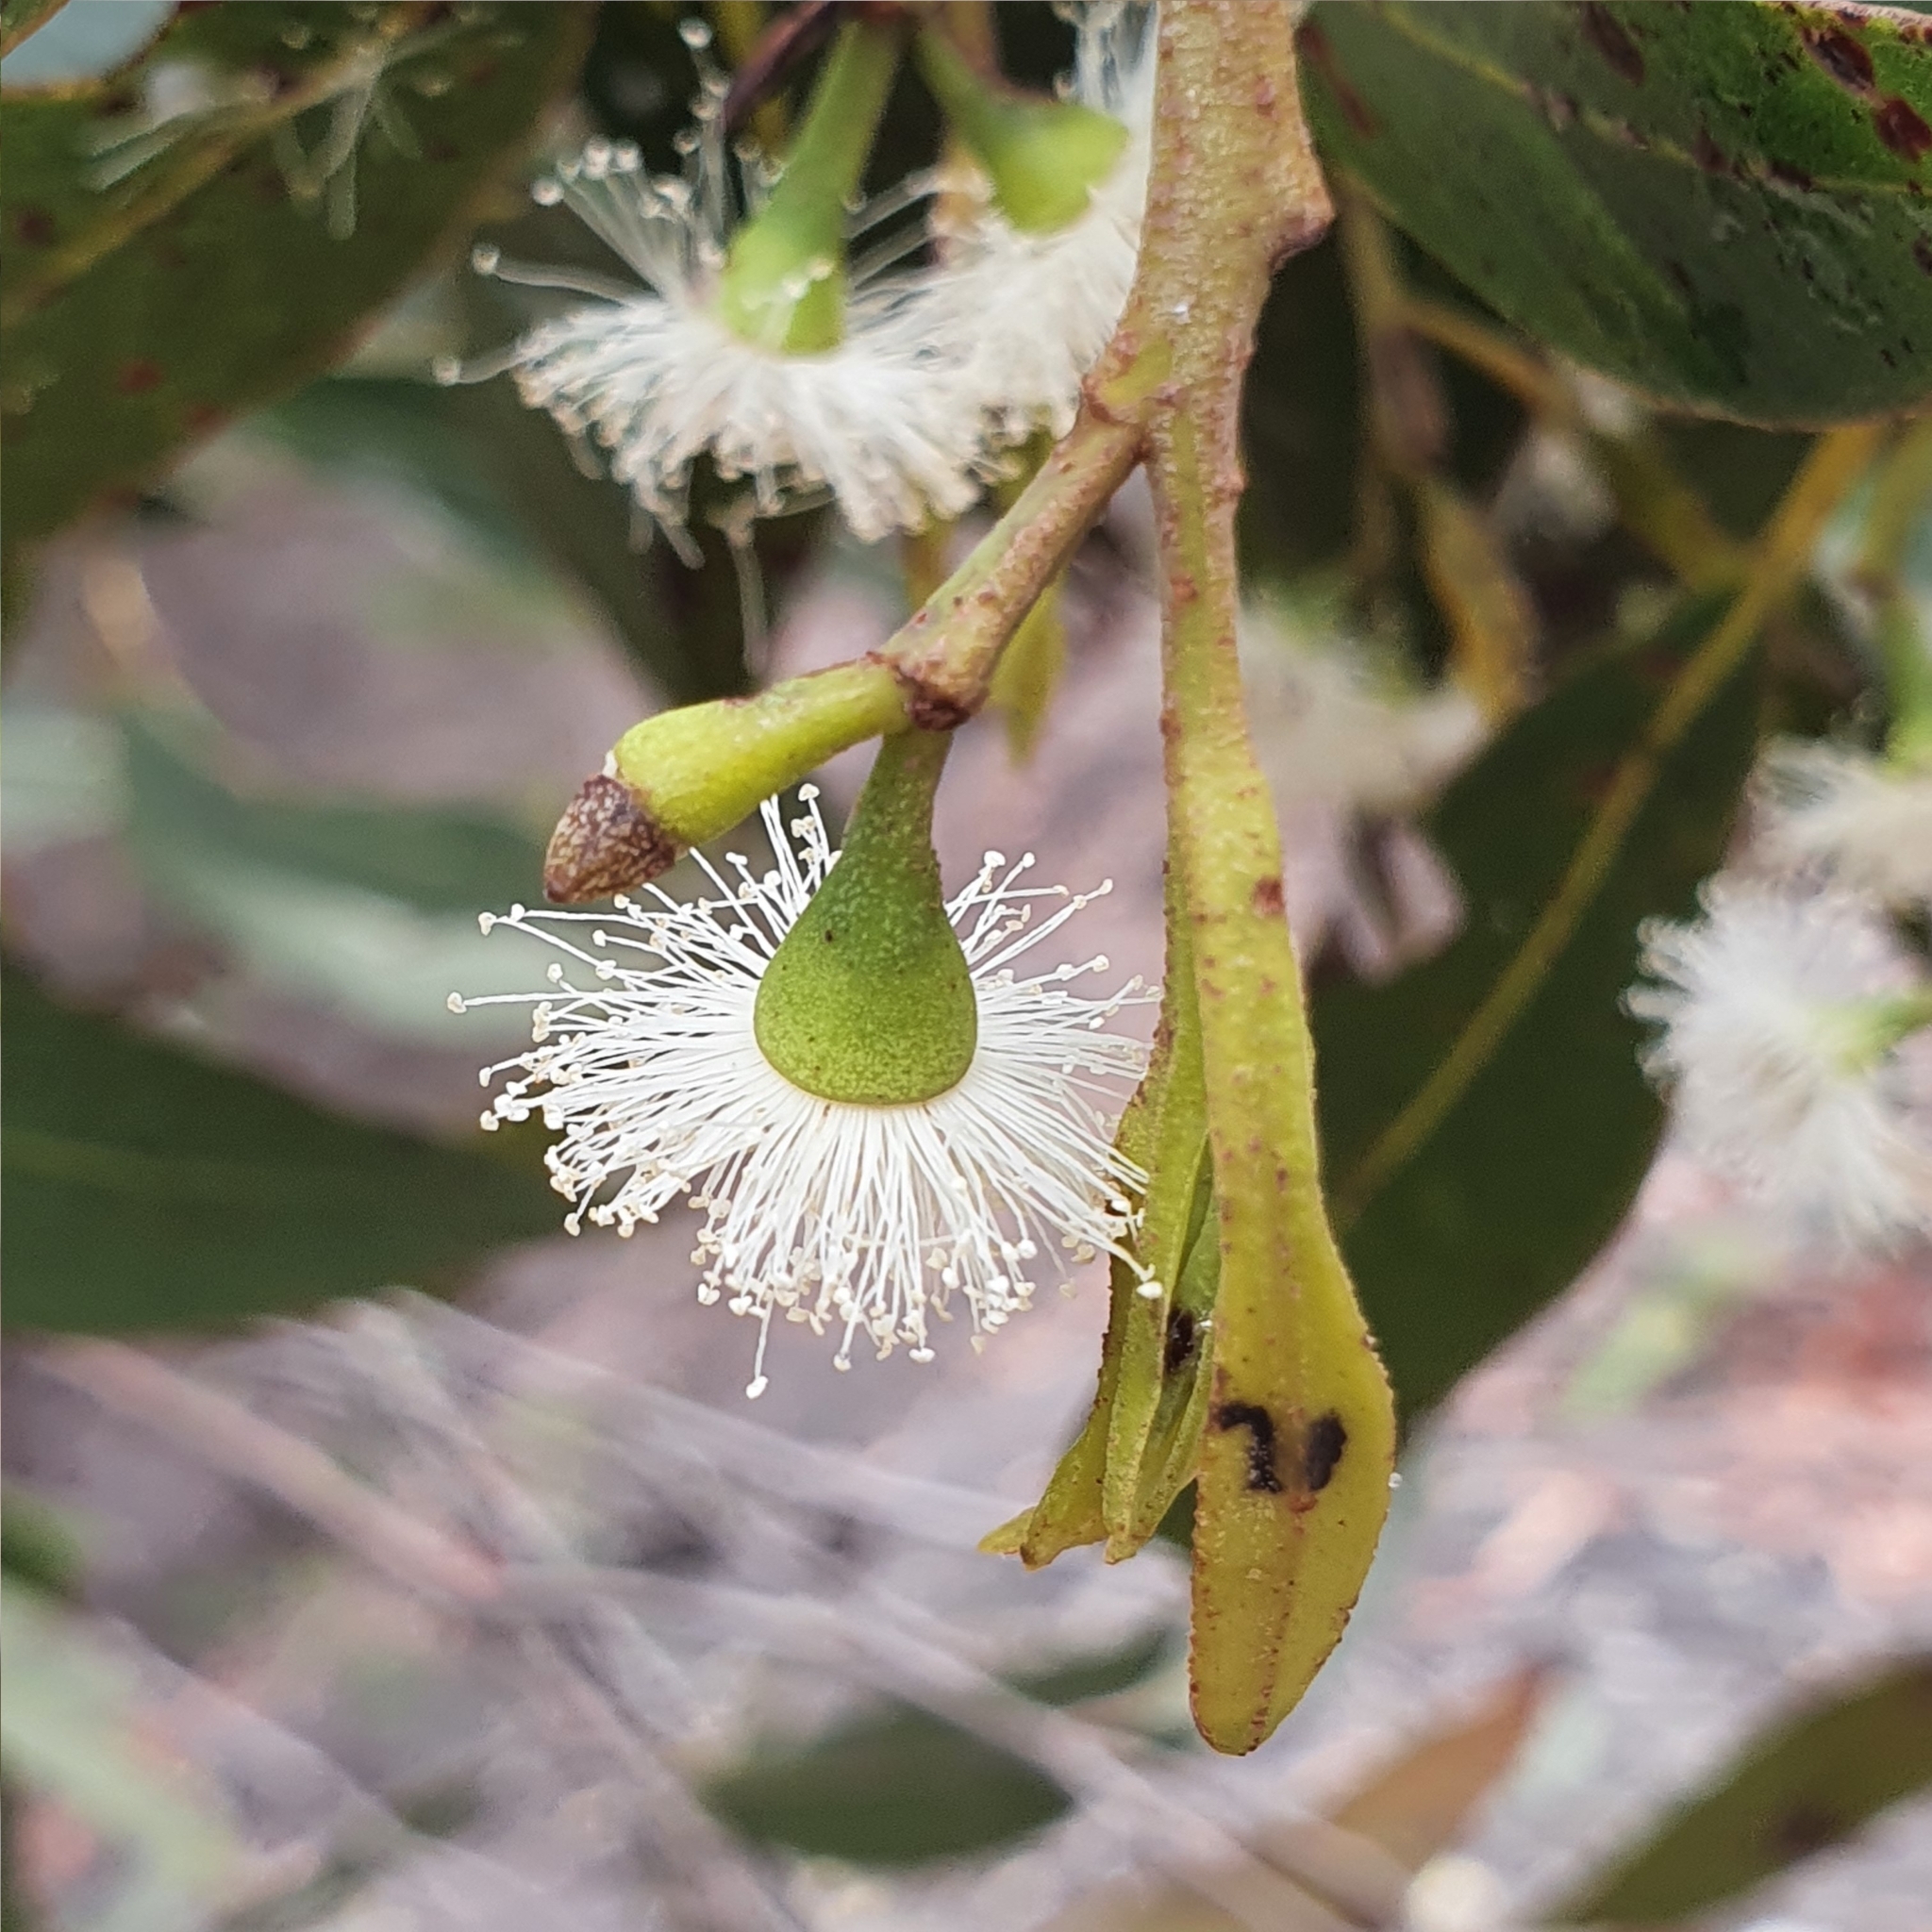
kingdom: Plantae
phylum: Tracheophyta
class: Magnoliopsida
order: Myrtales
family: Myrtaceae
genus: Eucalyptus
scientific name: Eucalyptus umbra
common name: White-mahogany
